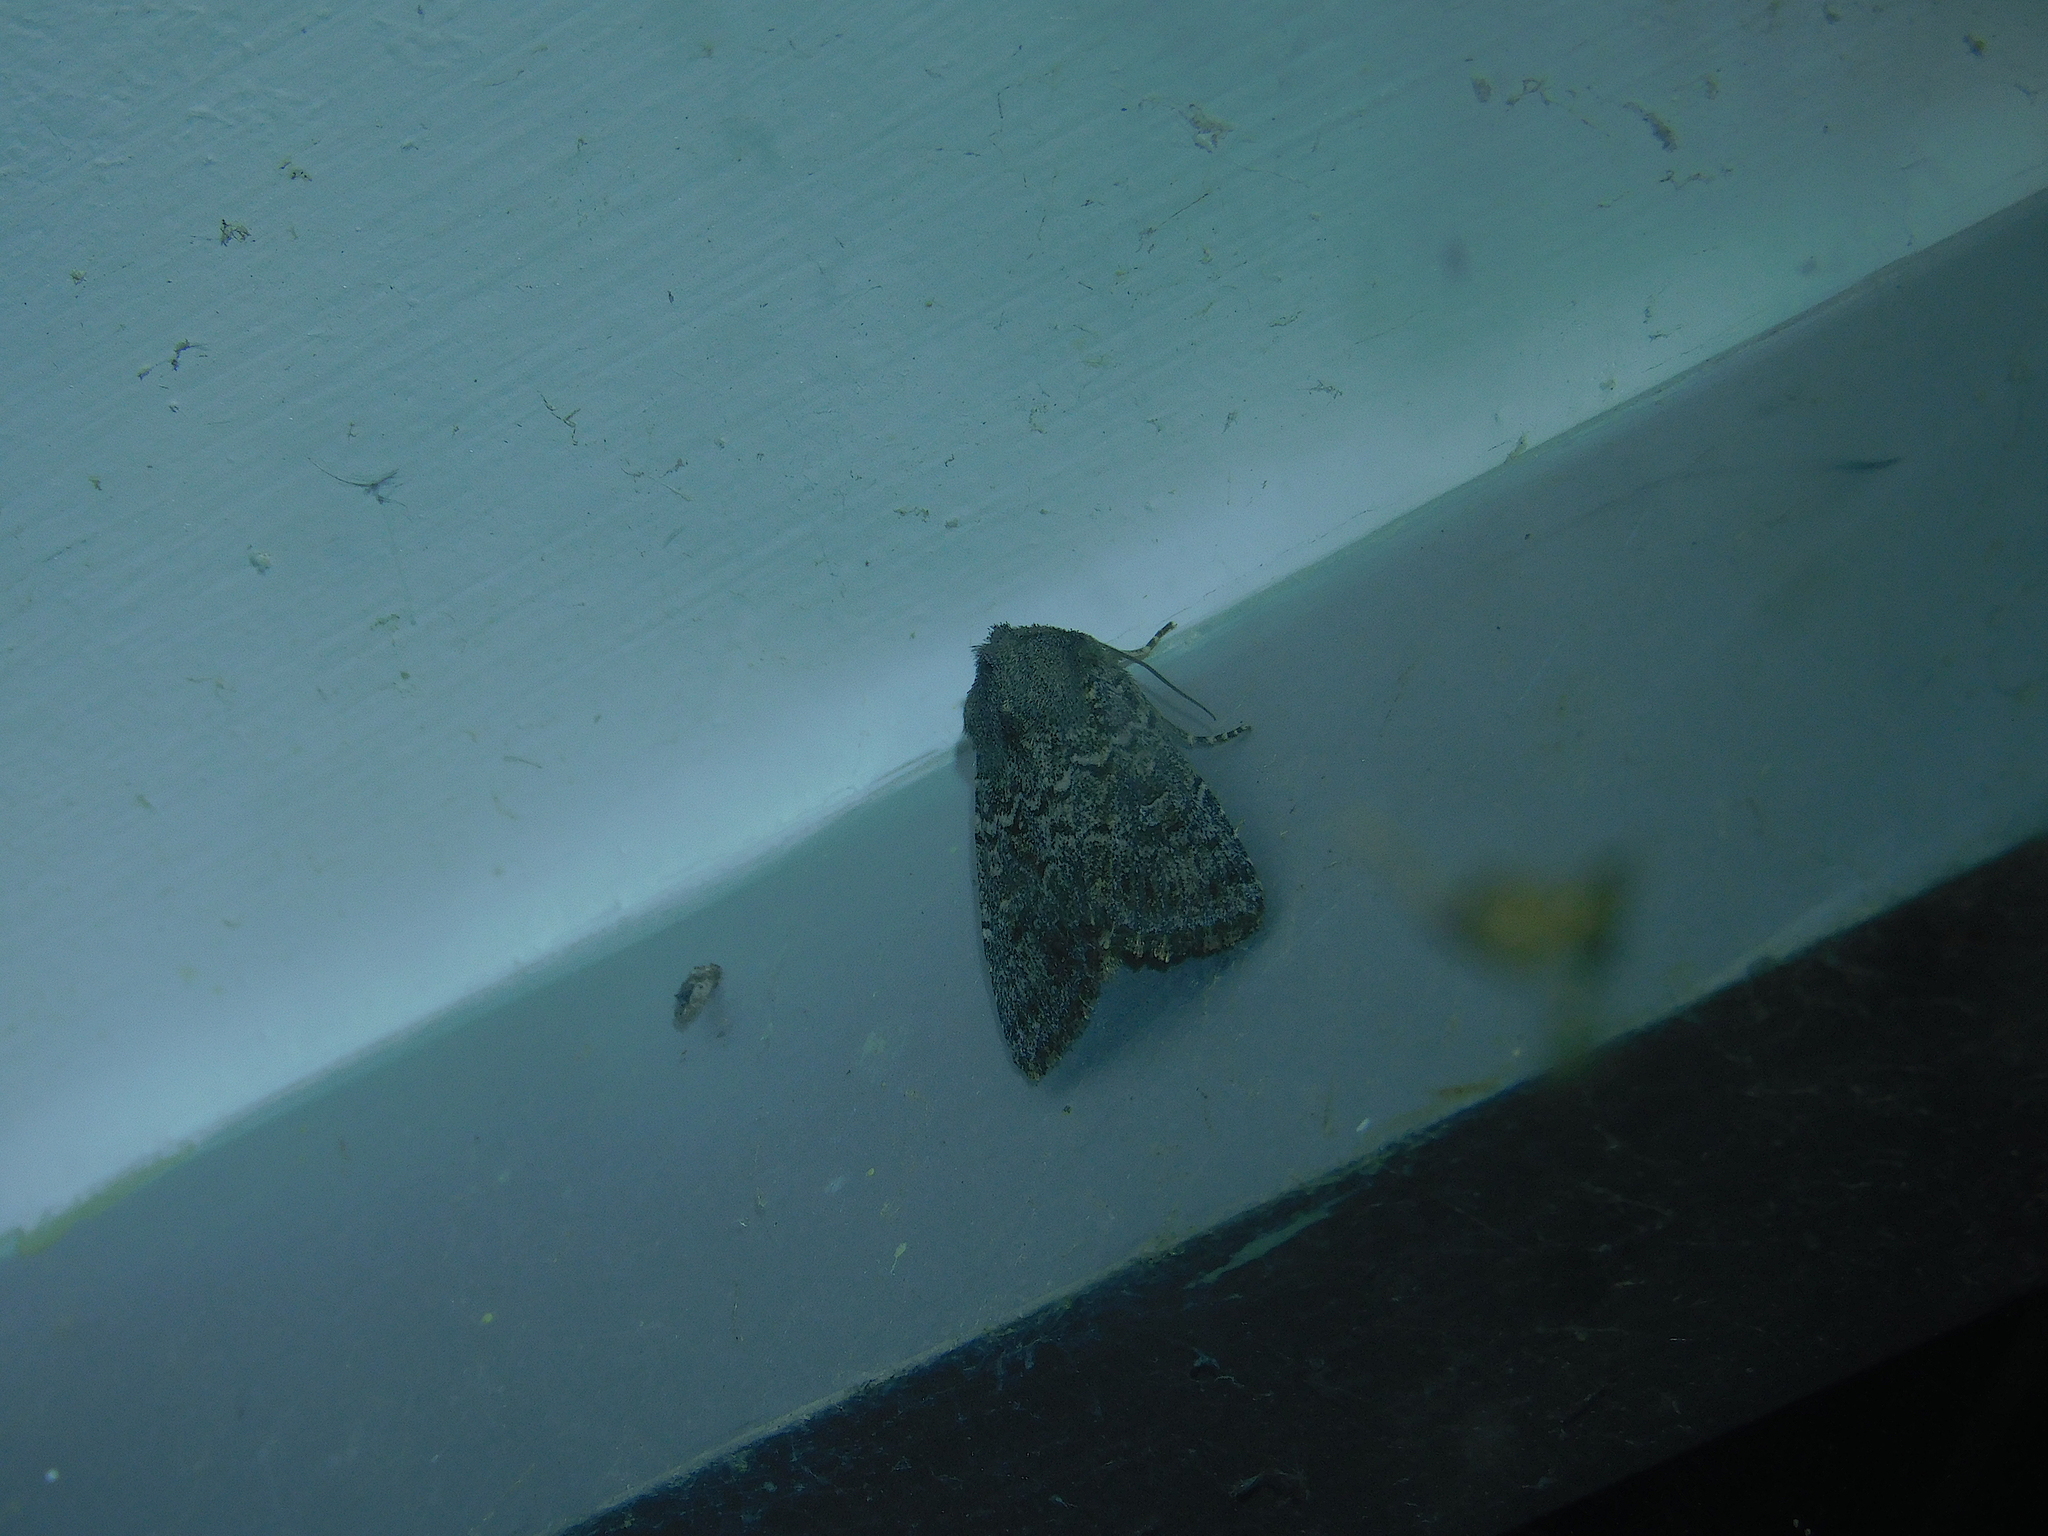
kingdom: Animalia
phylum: Arthropoda
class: Insecta
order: Lepidoptera
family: Nolidae
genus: Uraba
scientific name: Uraba lugens
